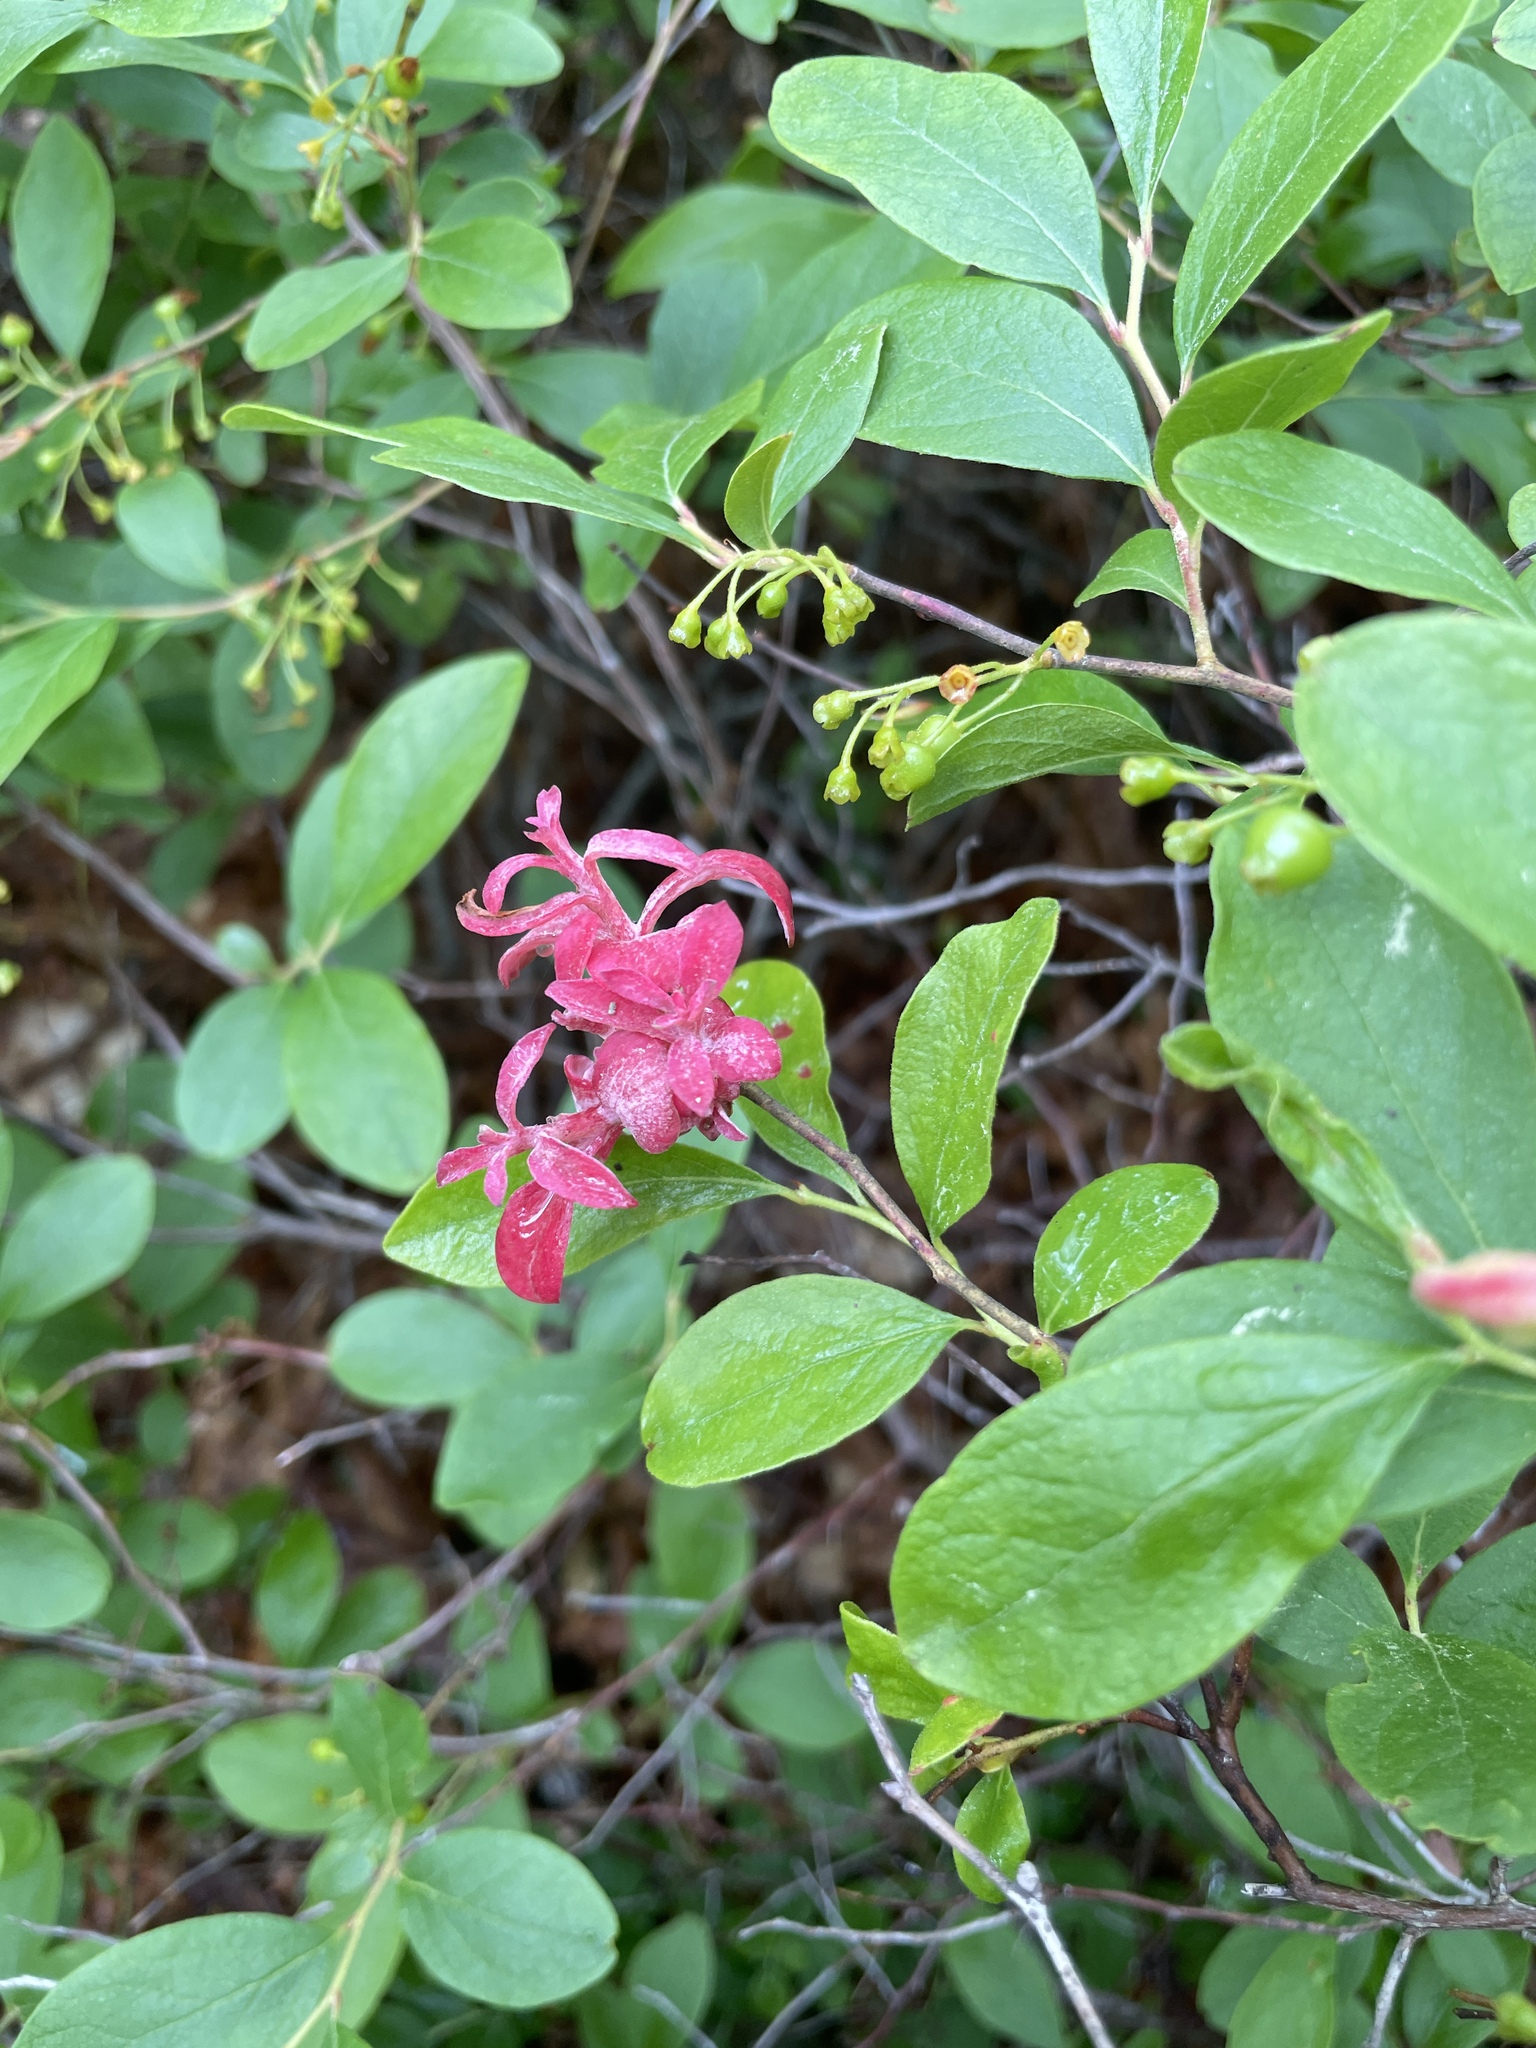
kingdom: Plantae
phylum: Tracheophyta
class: Magnoliopsida
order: Ericales
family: Ericaceae
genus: Gaylussacia
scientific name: Gaylussacia baccata
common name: Black huckleberry
